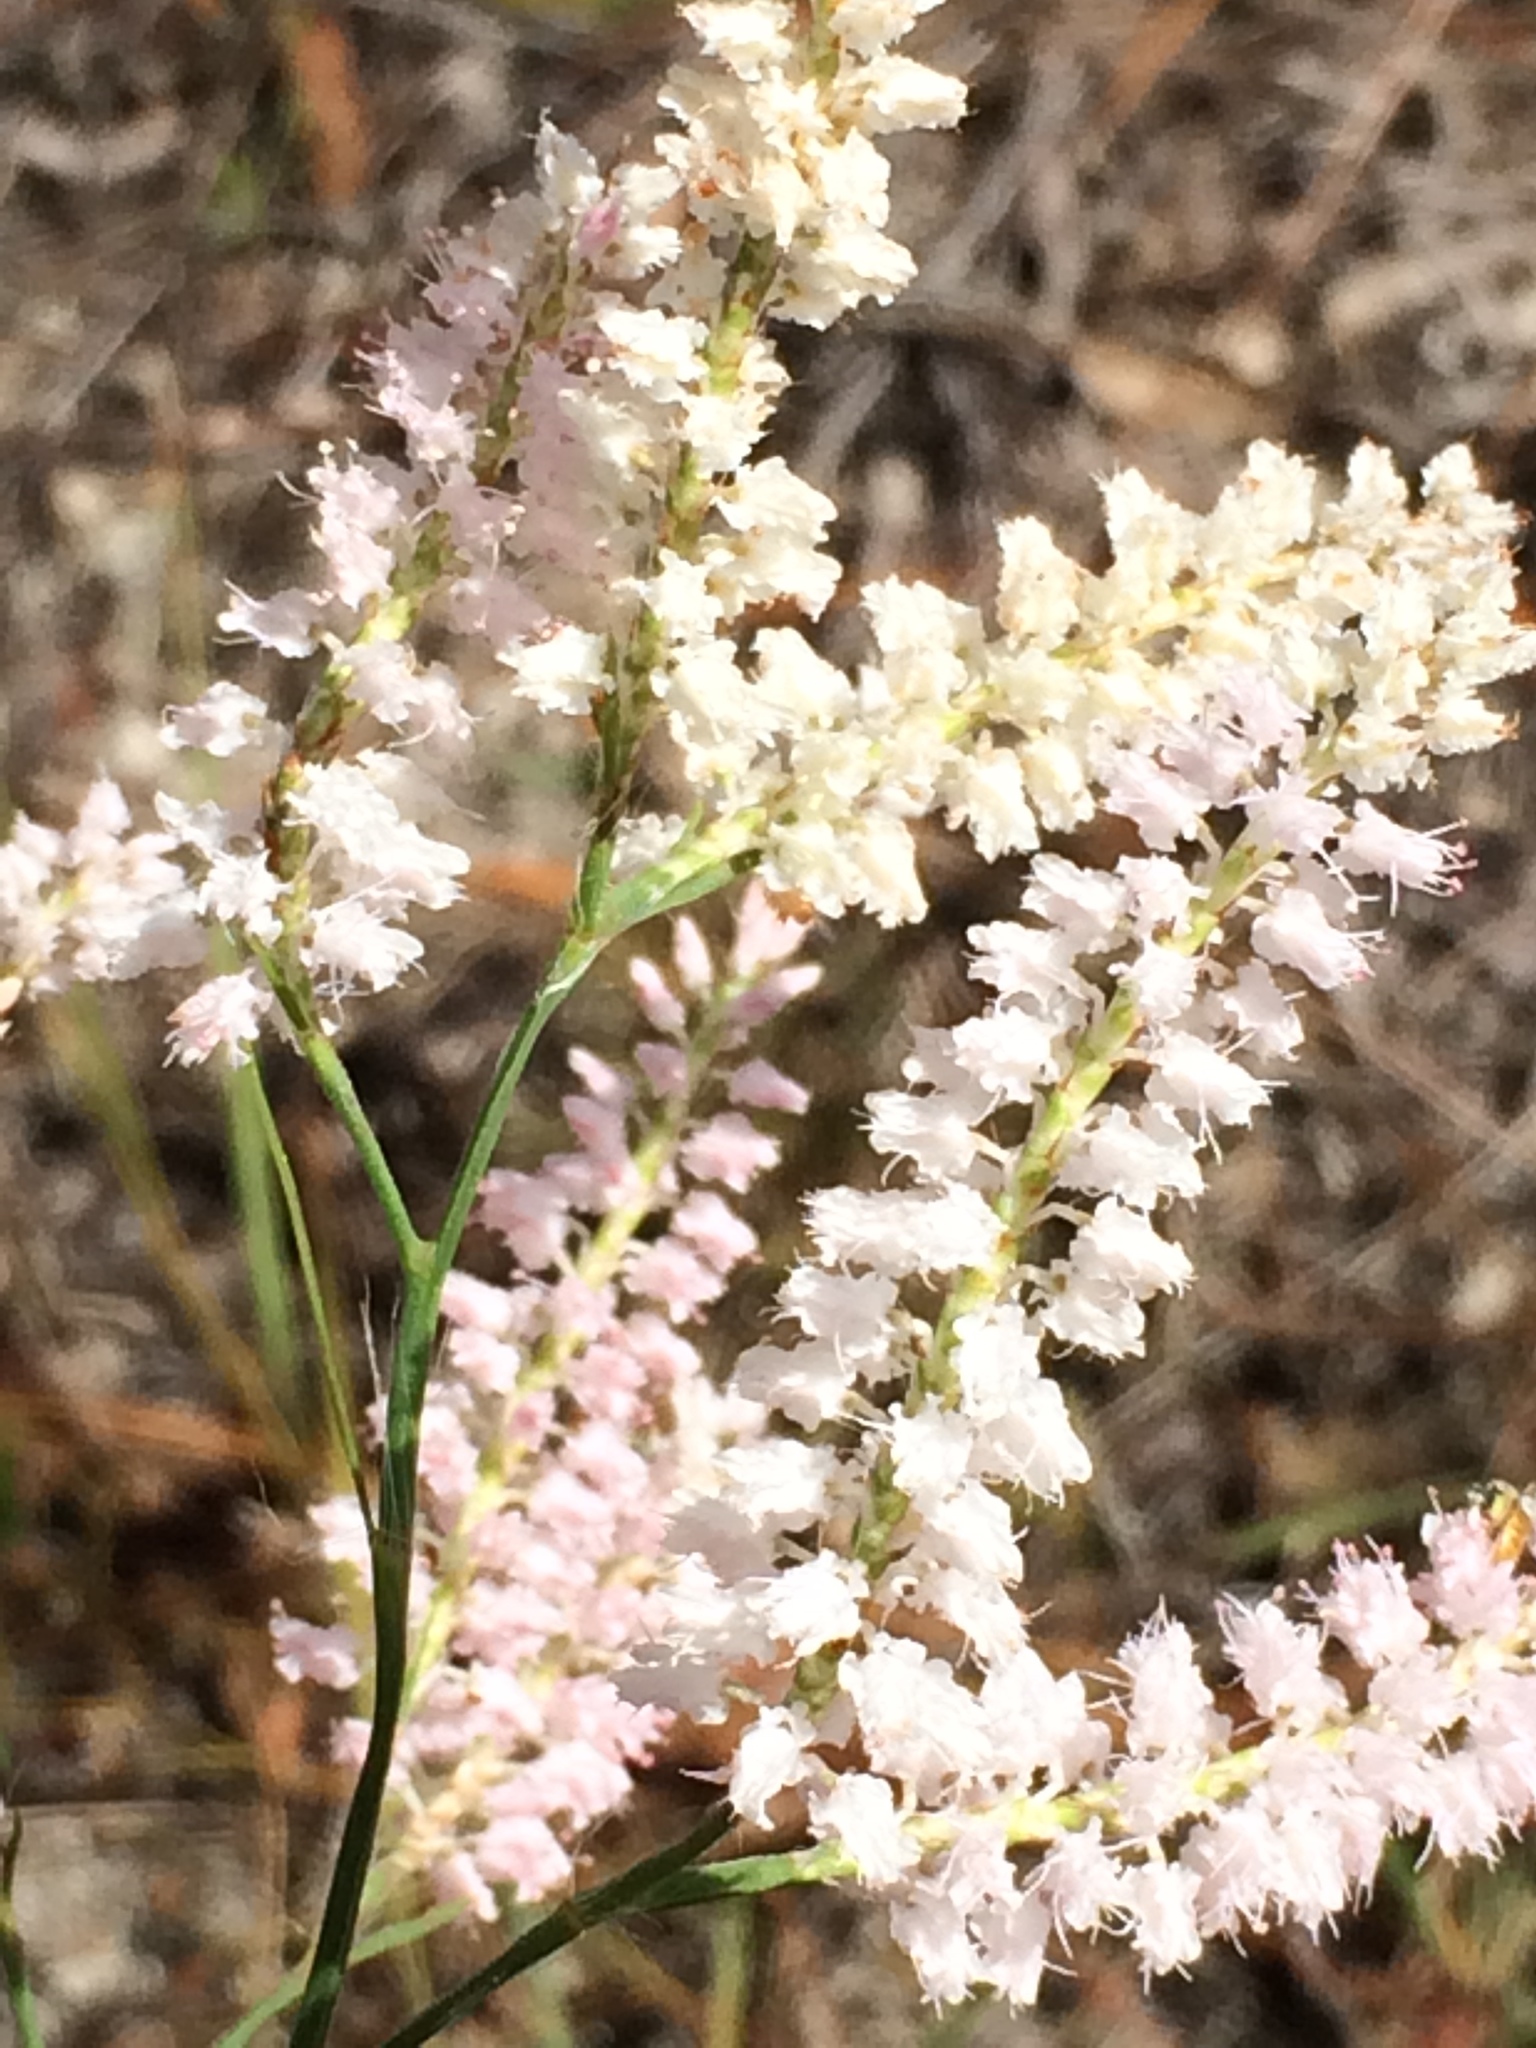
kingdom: Plantae
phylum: Tracheophyta
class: Magnoliopsida
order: Caryophyllales
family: Polygonaceae
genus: Polygonella
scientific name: Polygonella robusta
